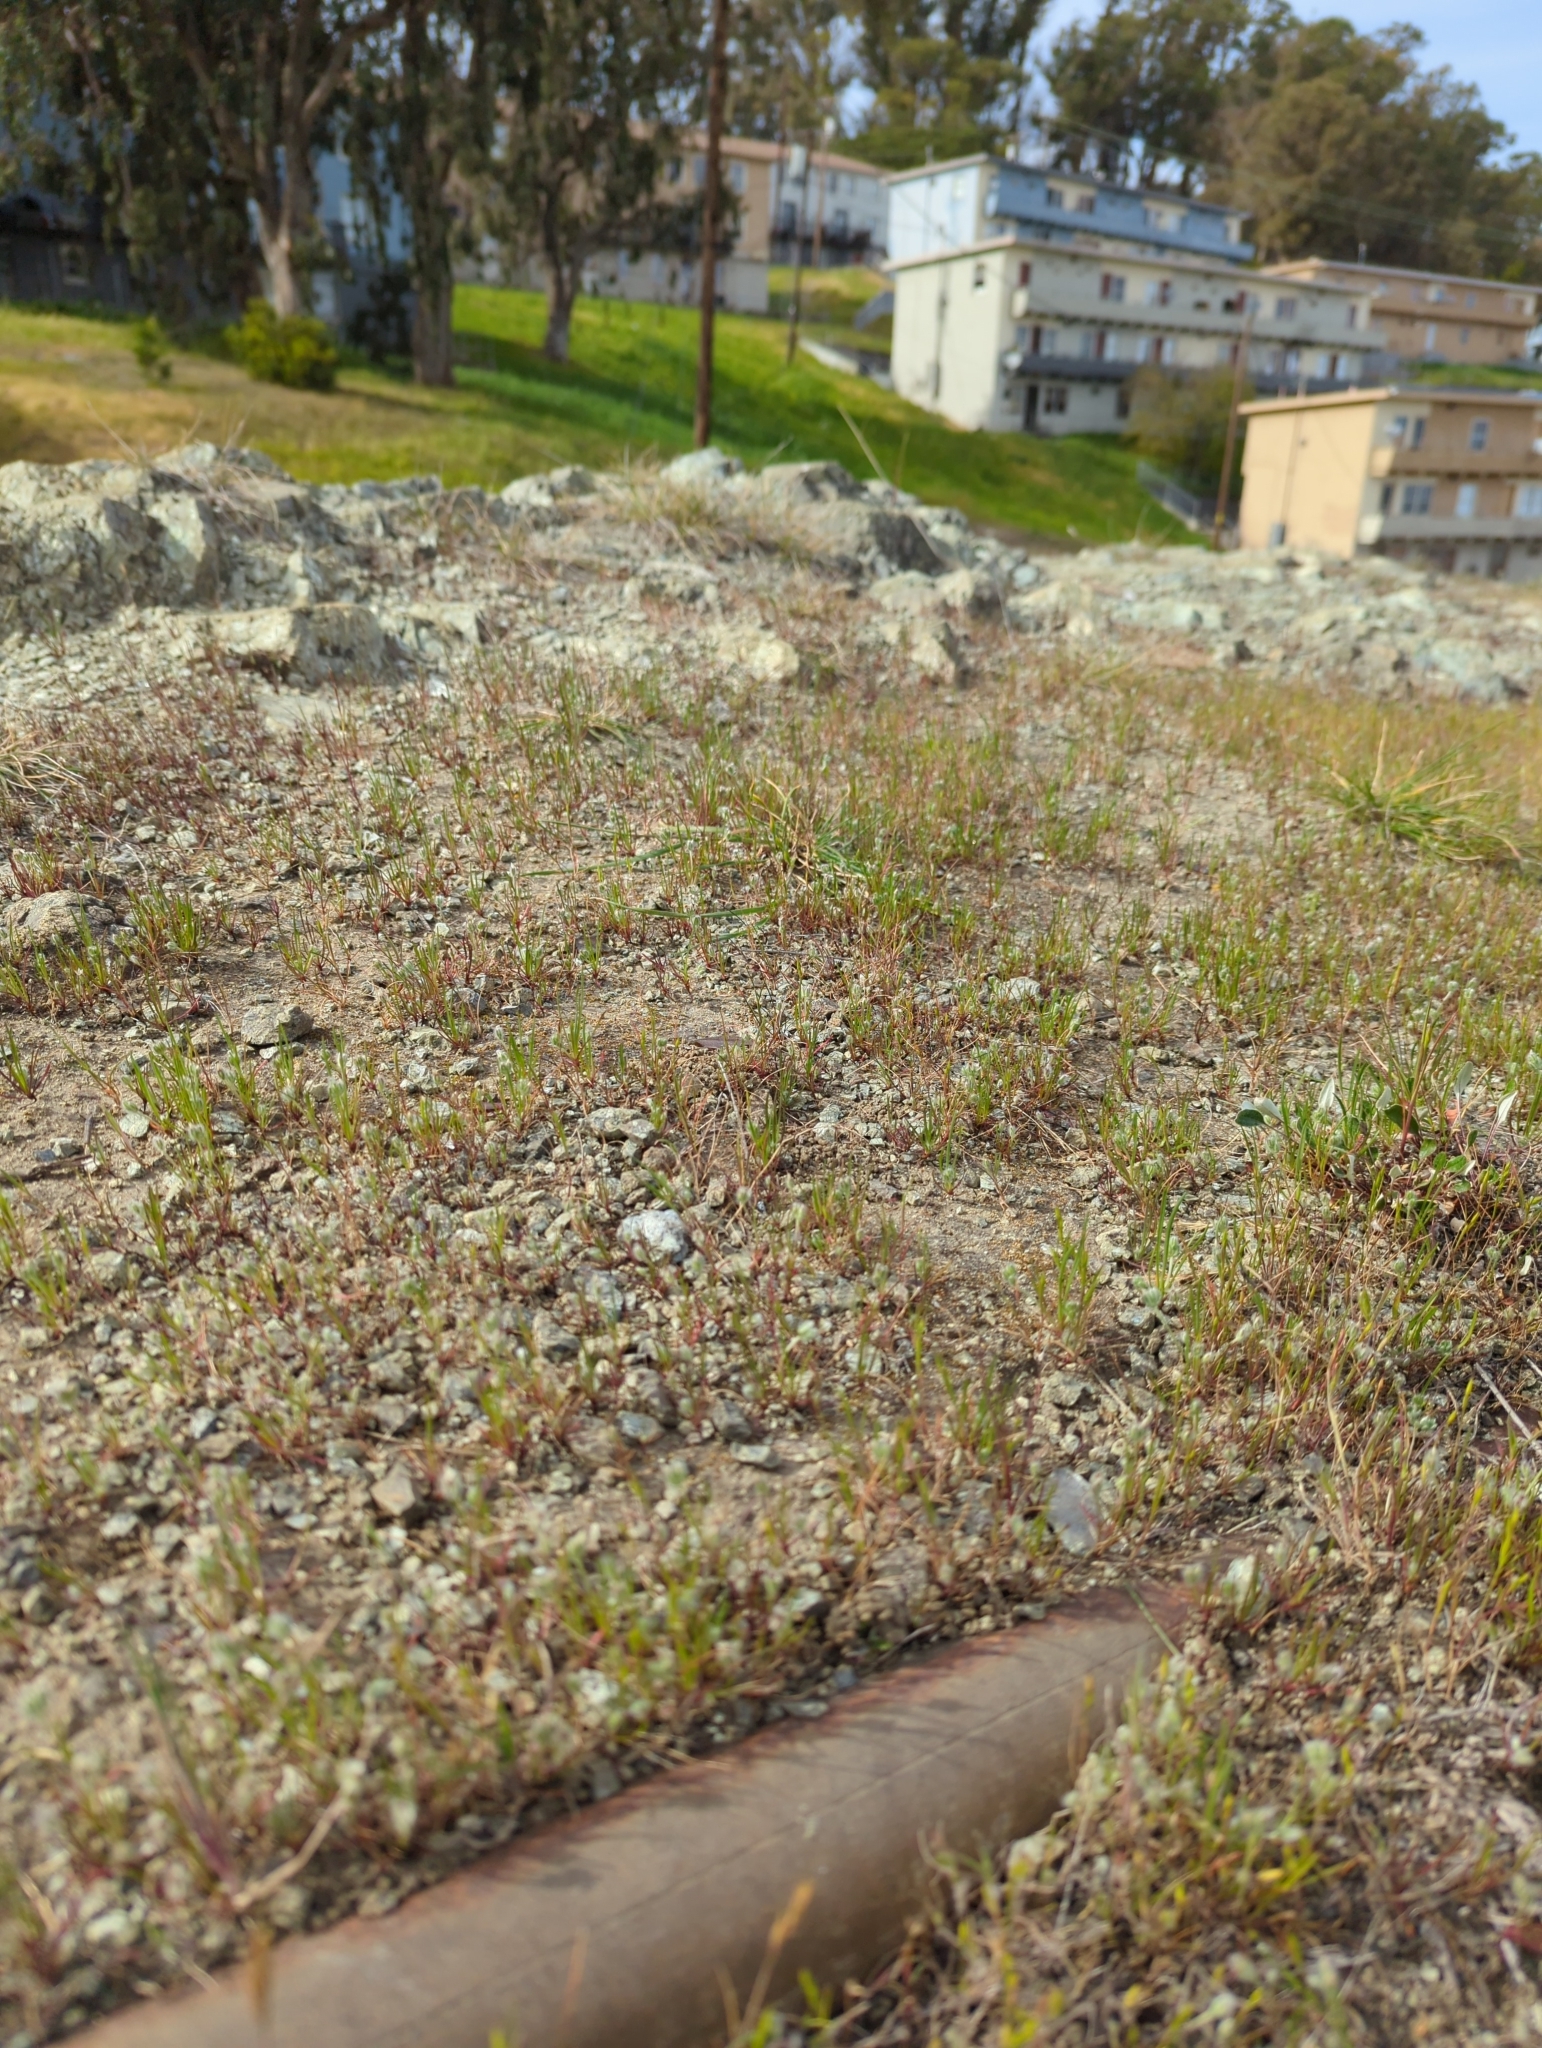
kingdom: Plantae
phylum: Tracheophyta
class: Magnoliopsida
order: Lamiales
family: Plantaginaceae
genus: Plantago
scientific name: Plantago erecta
